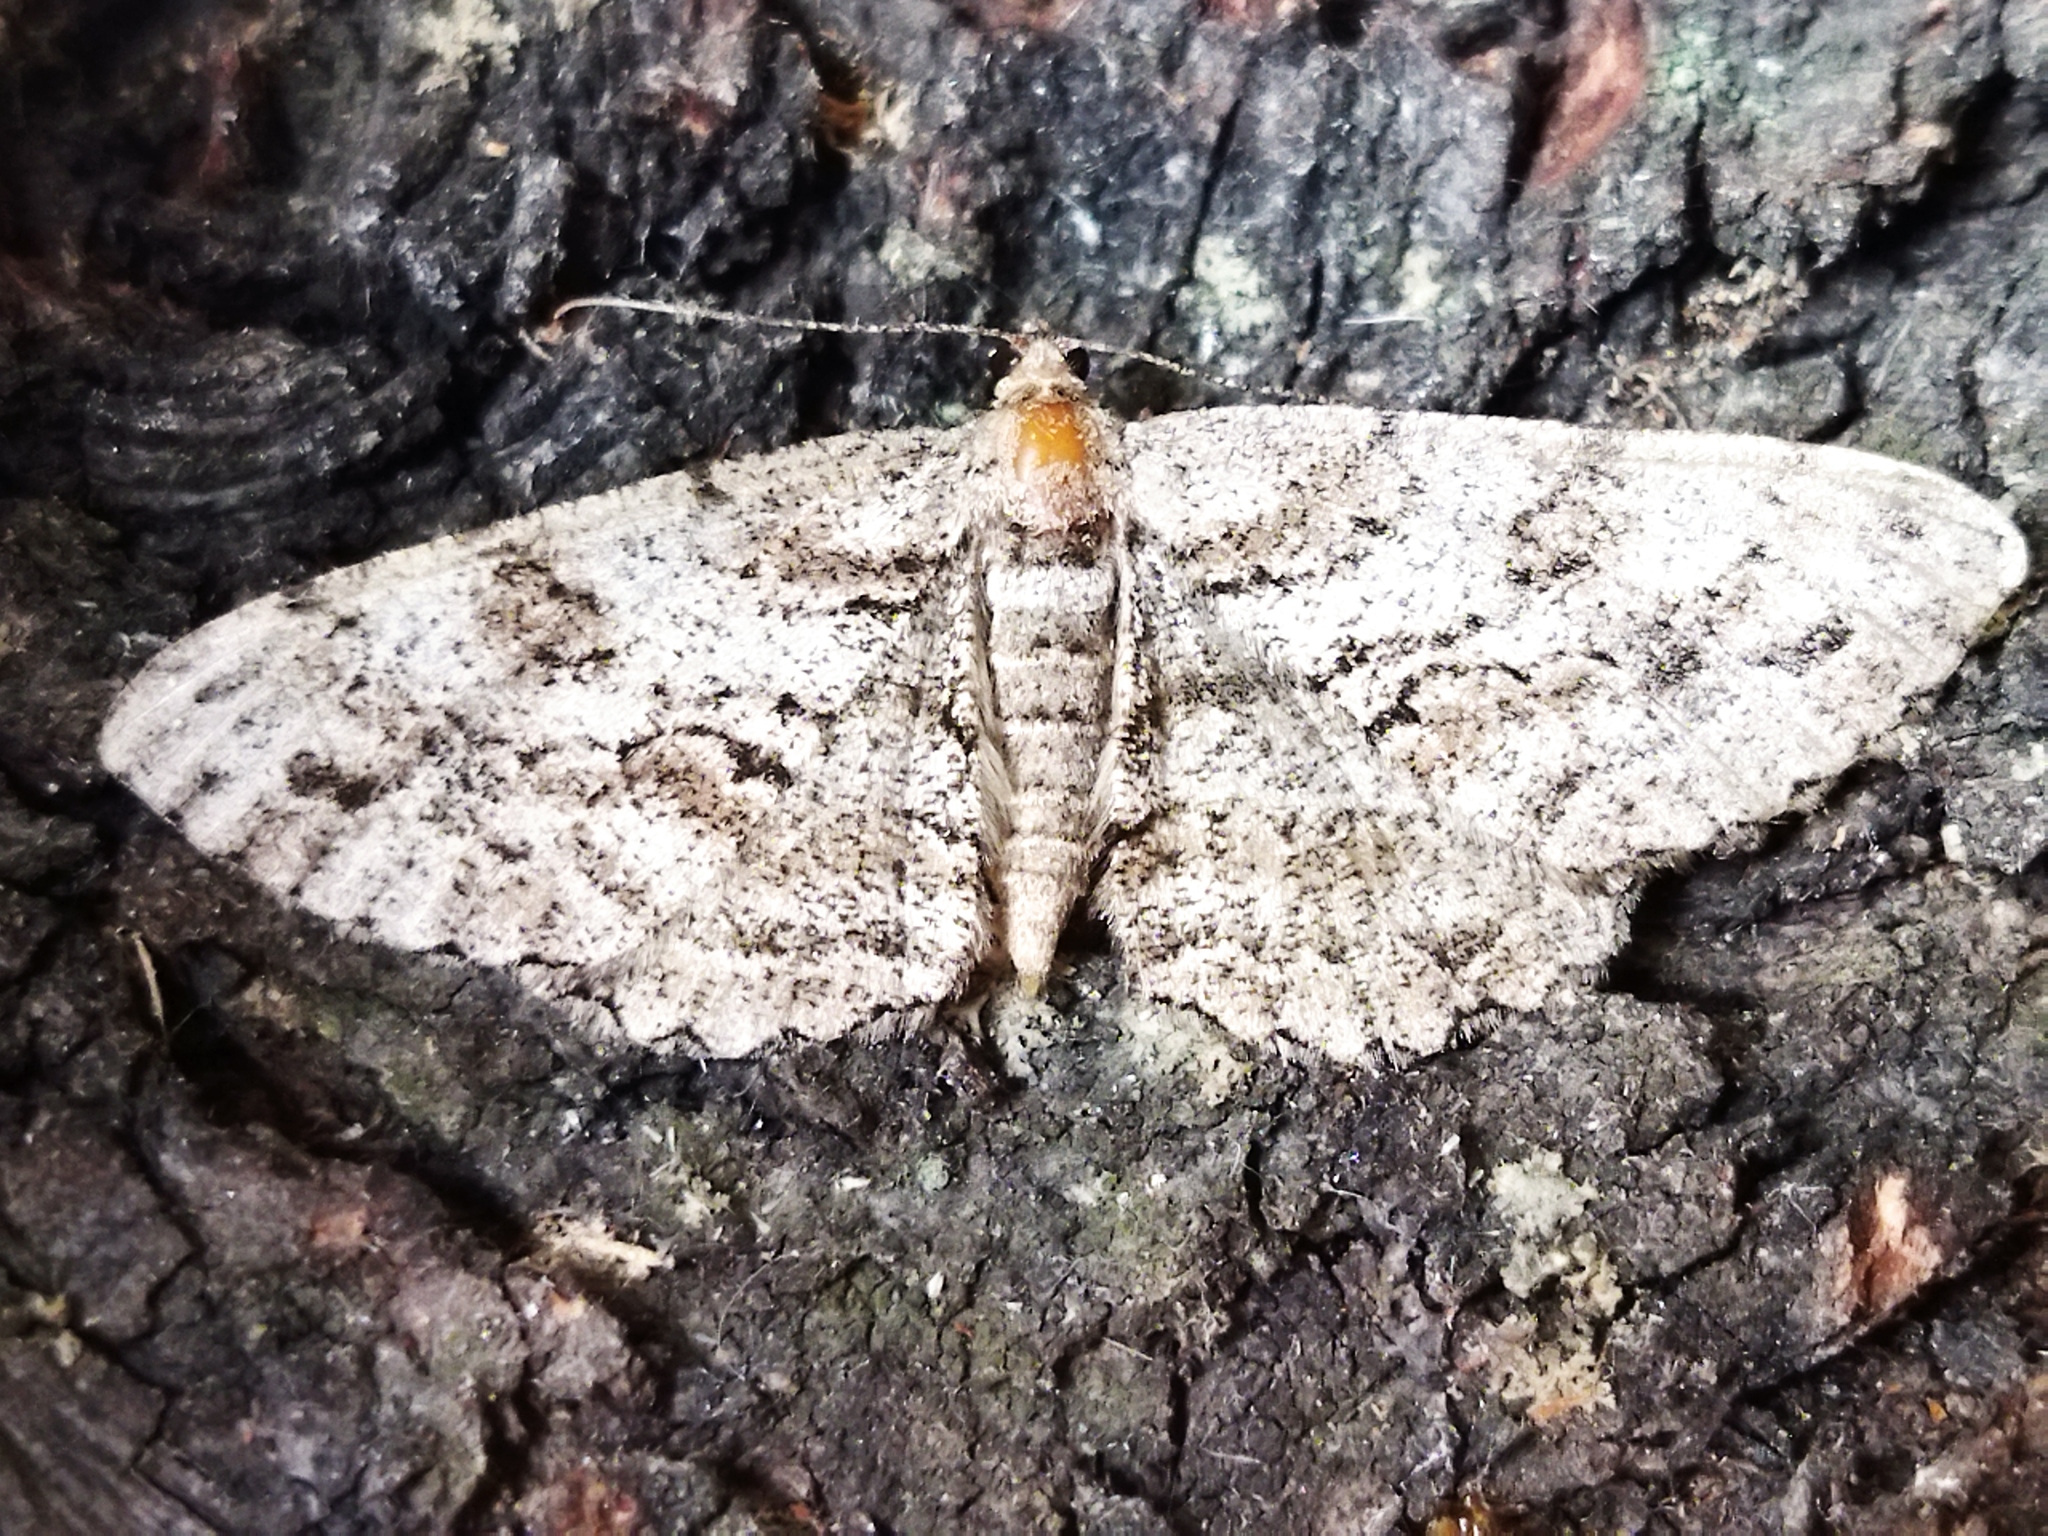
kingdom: Animalia
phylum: Arthropoda
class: Insecta
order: Lepidoptera
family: Geometridae
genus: Peribatodes
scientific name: Peribatodes secundaria
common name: Feathered beauty
